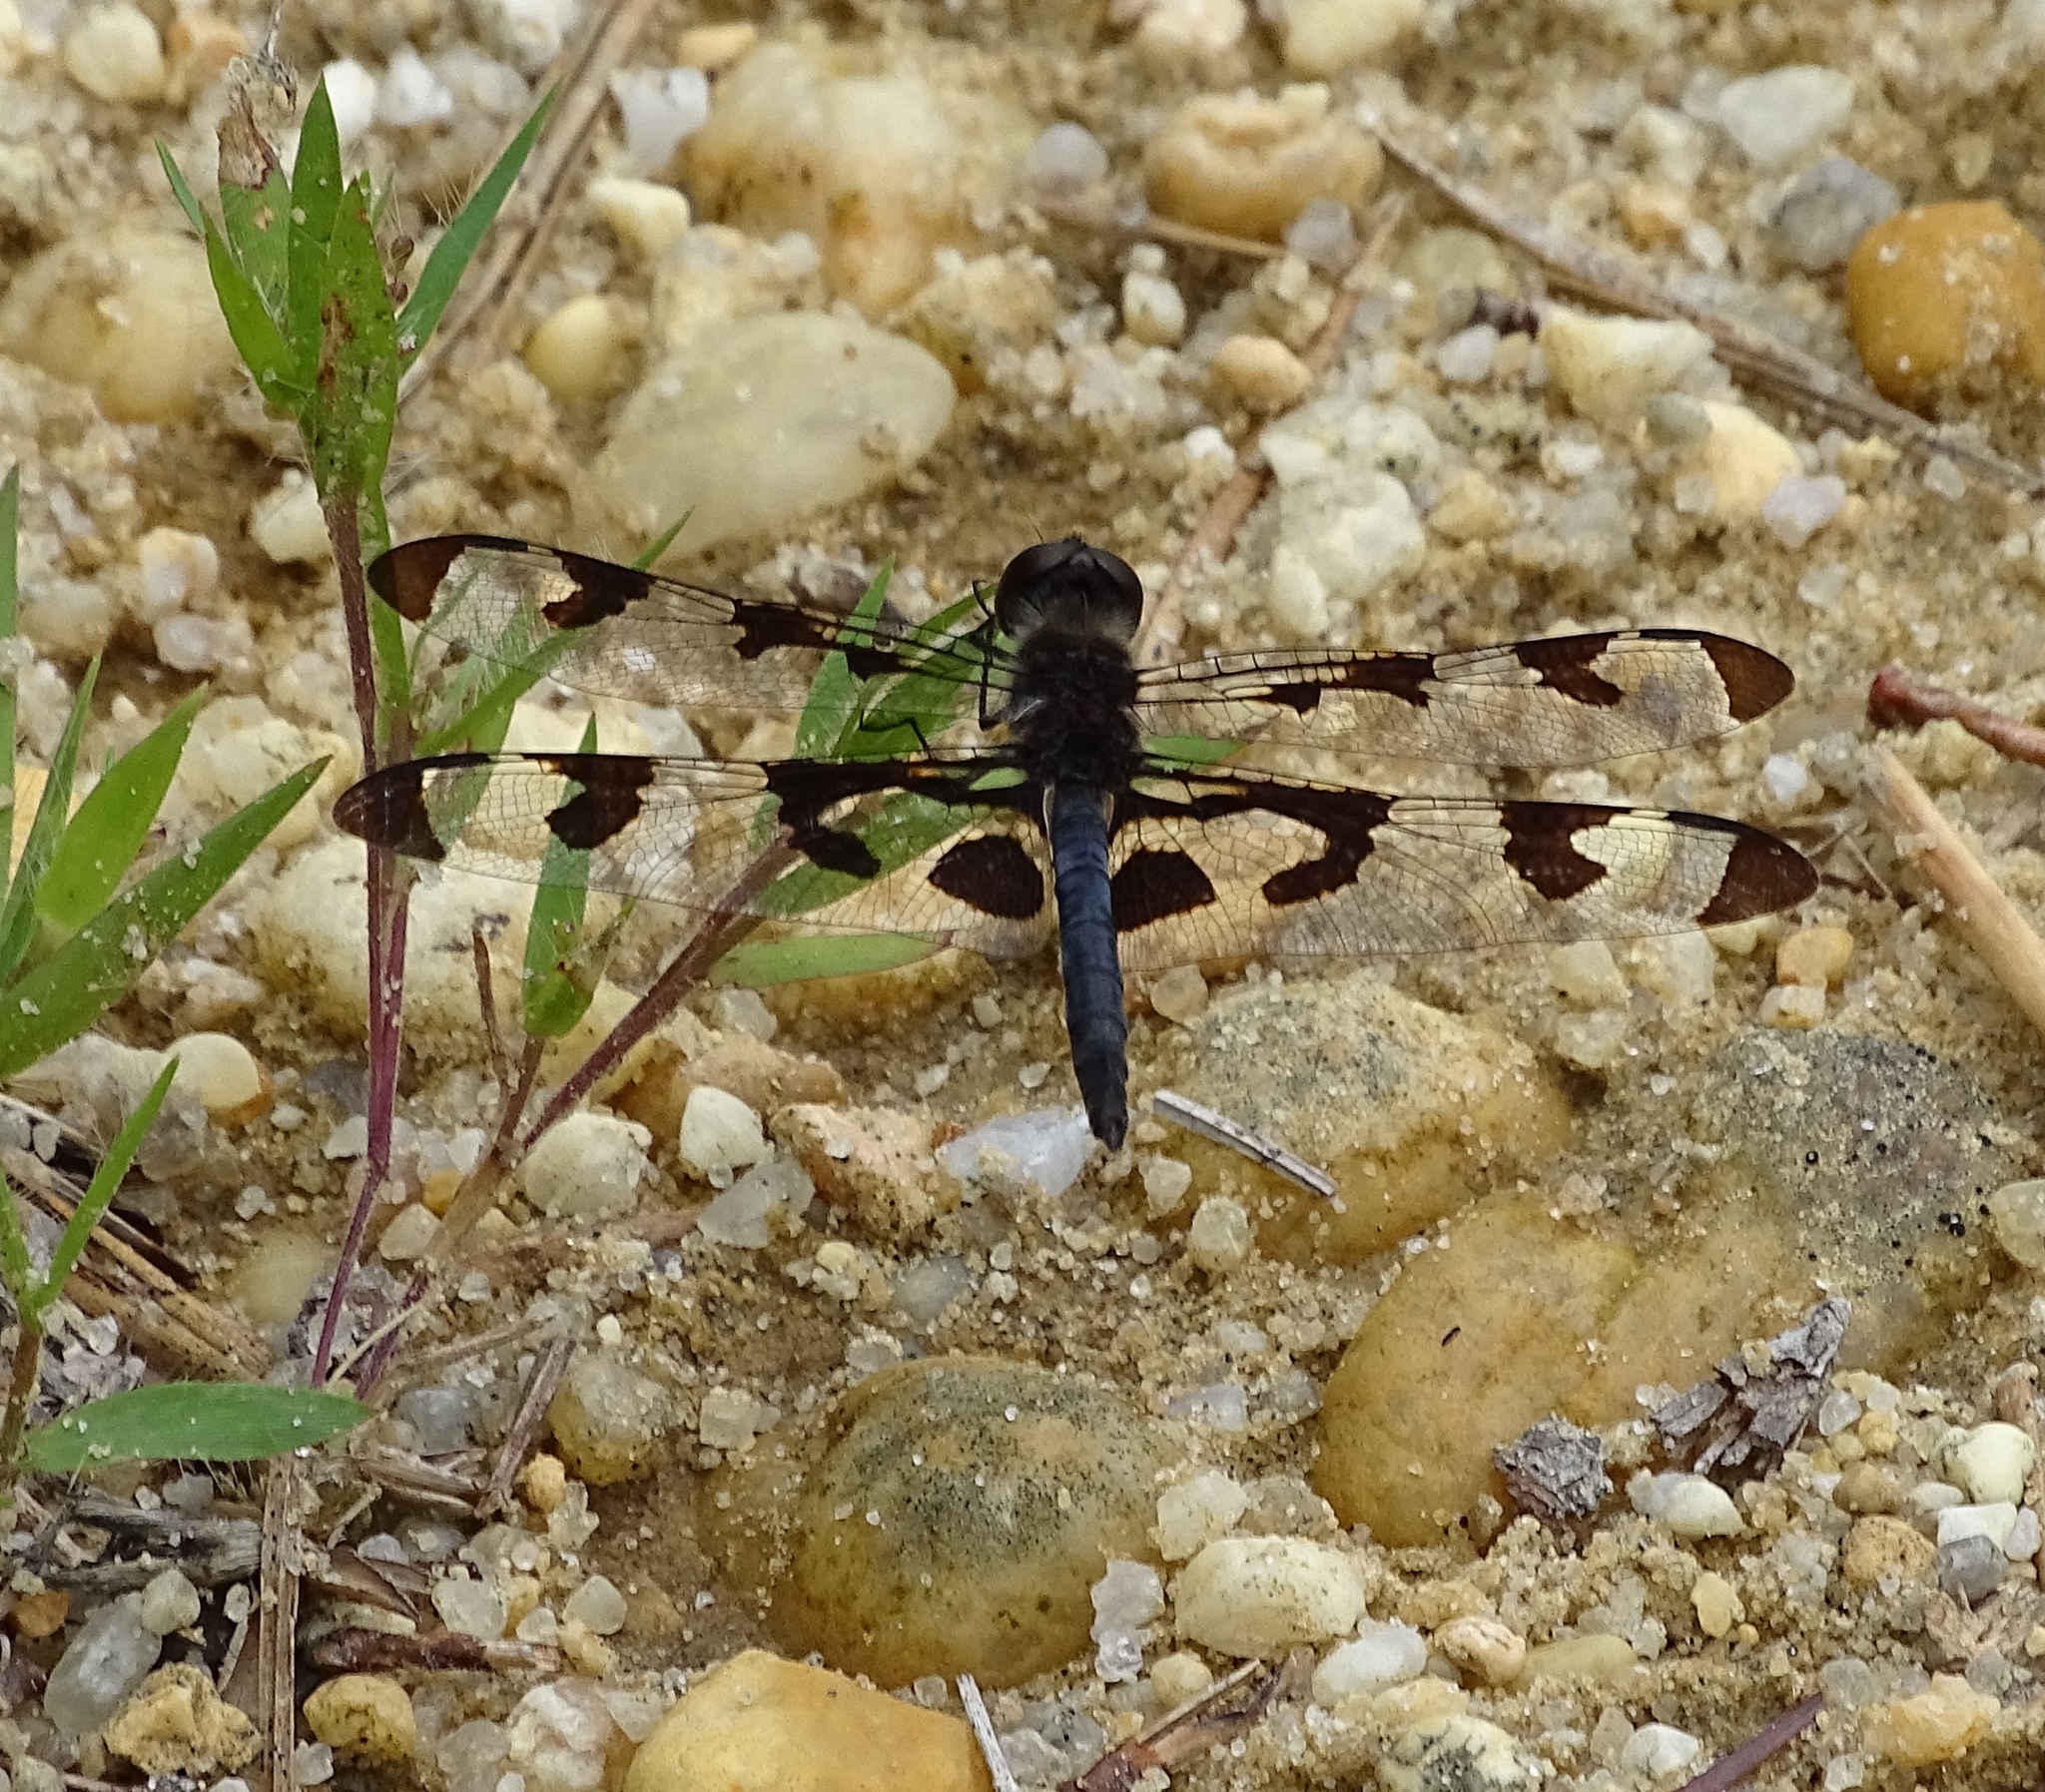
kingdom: Animalia
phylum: Arthropoda
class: Insecta
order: Odonata
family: Libellulidae
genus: Celithemis
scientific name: Celithemis fasciata
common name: Banded pennant
